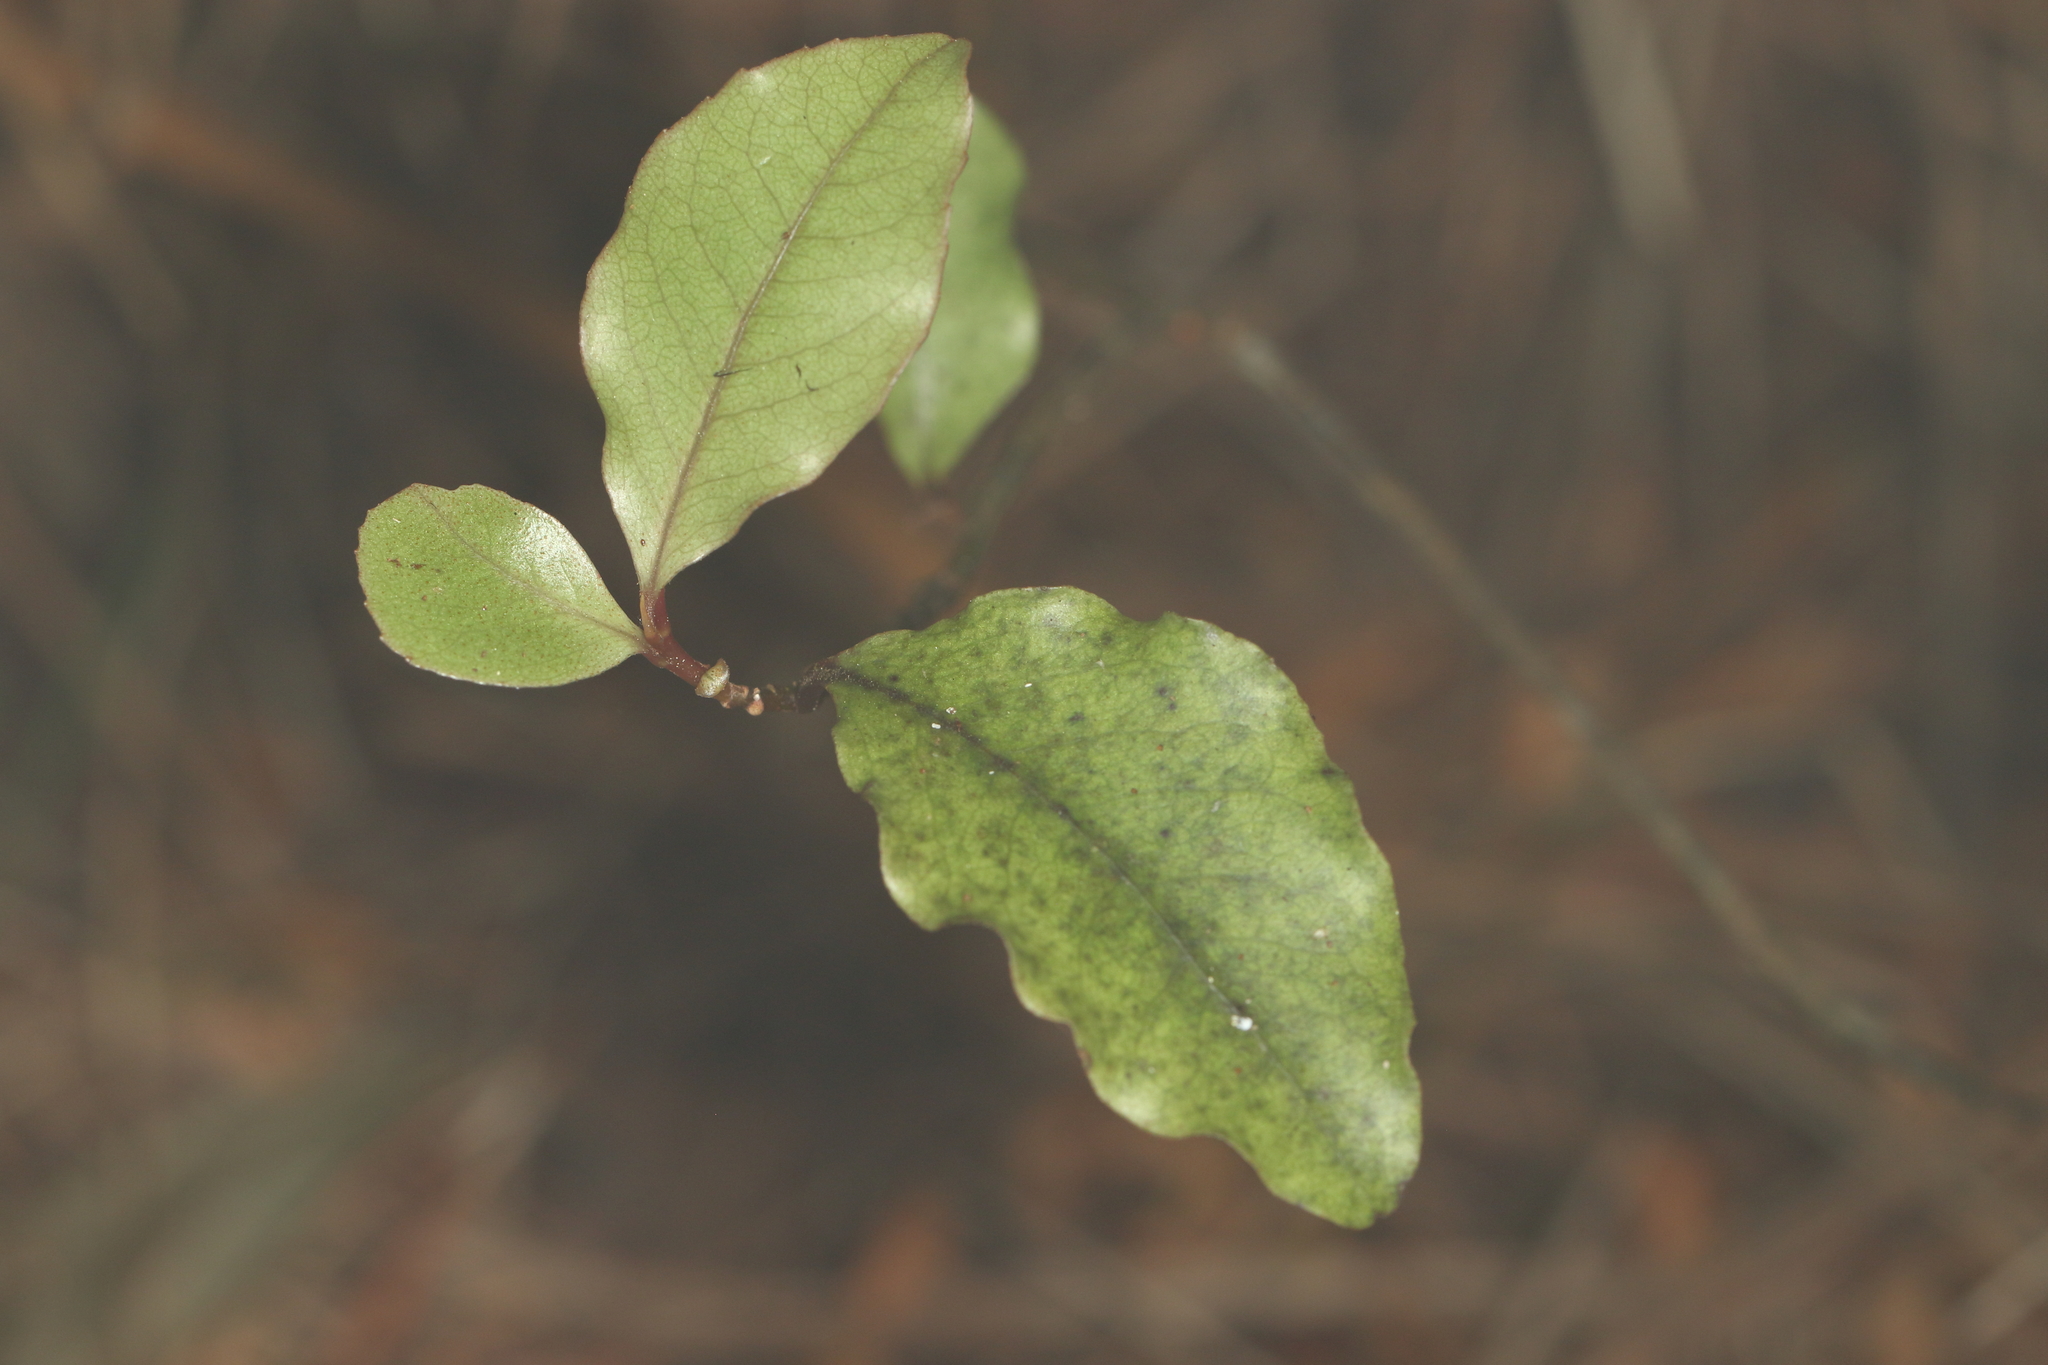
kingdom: Plantae
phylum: Tracheophyta
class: Magnoliopsida
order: Ericales
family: Primulaceae
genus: Myrsine
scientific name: Myrsine australis
